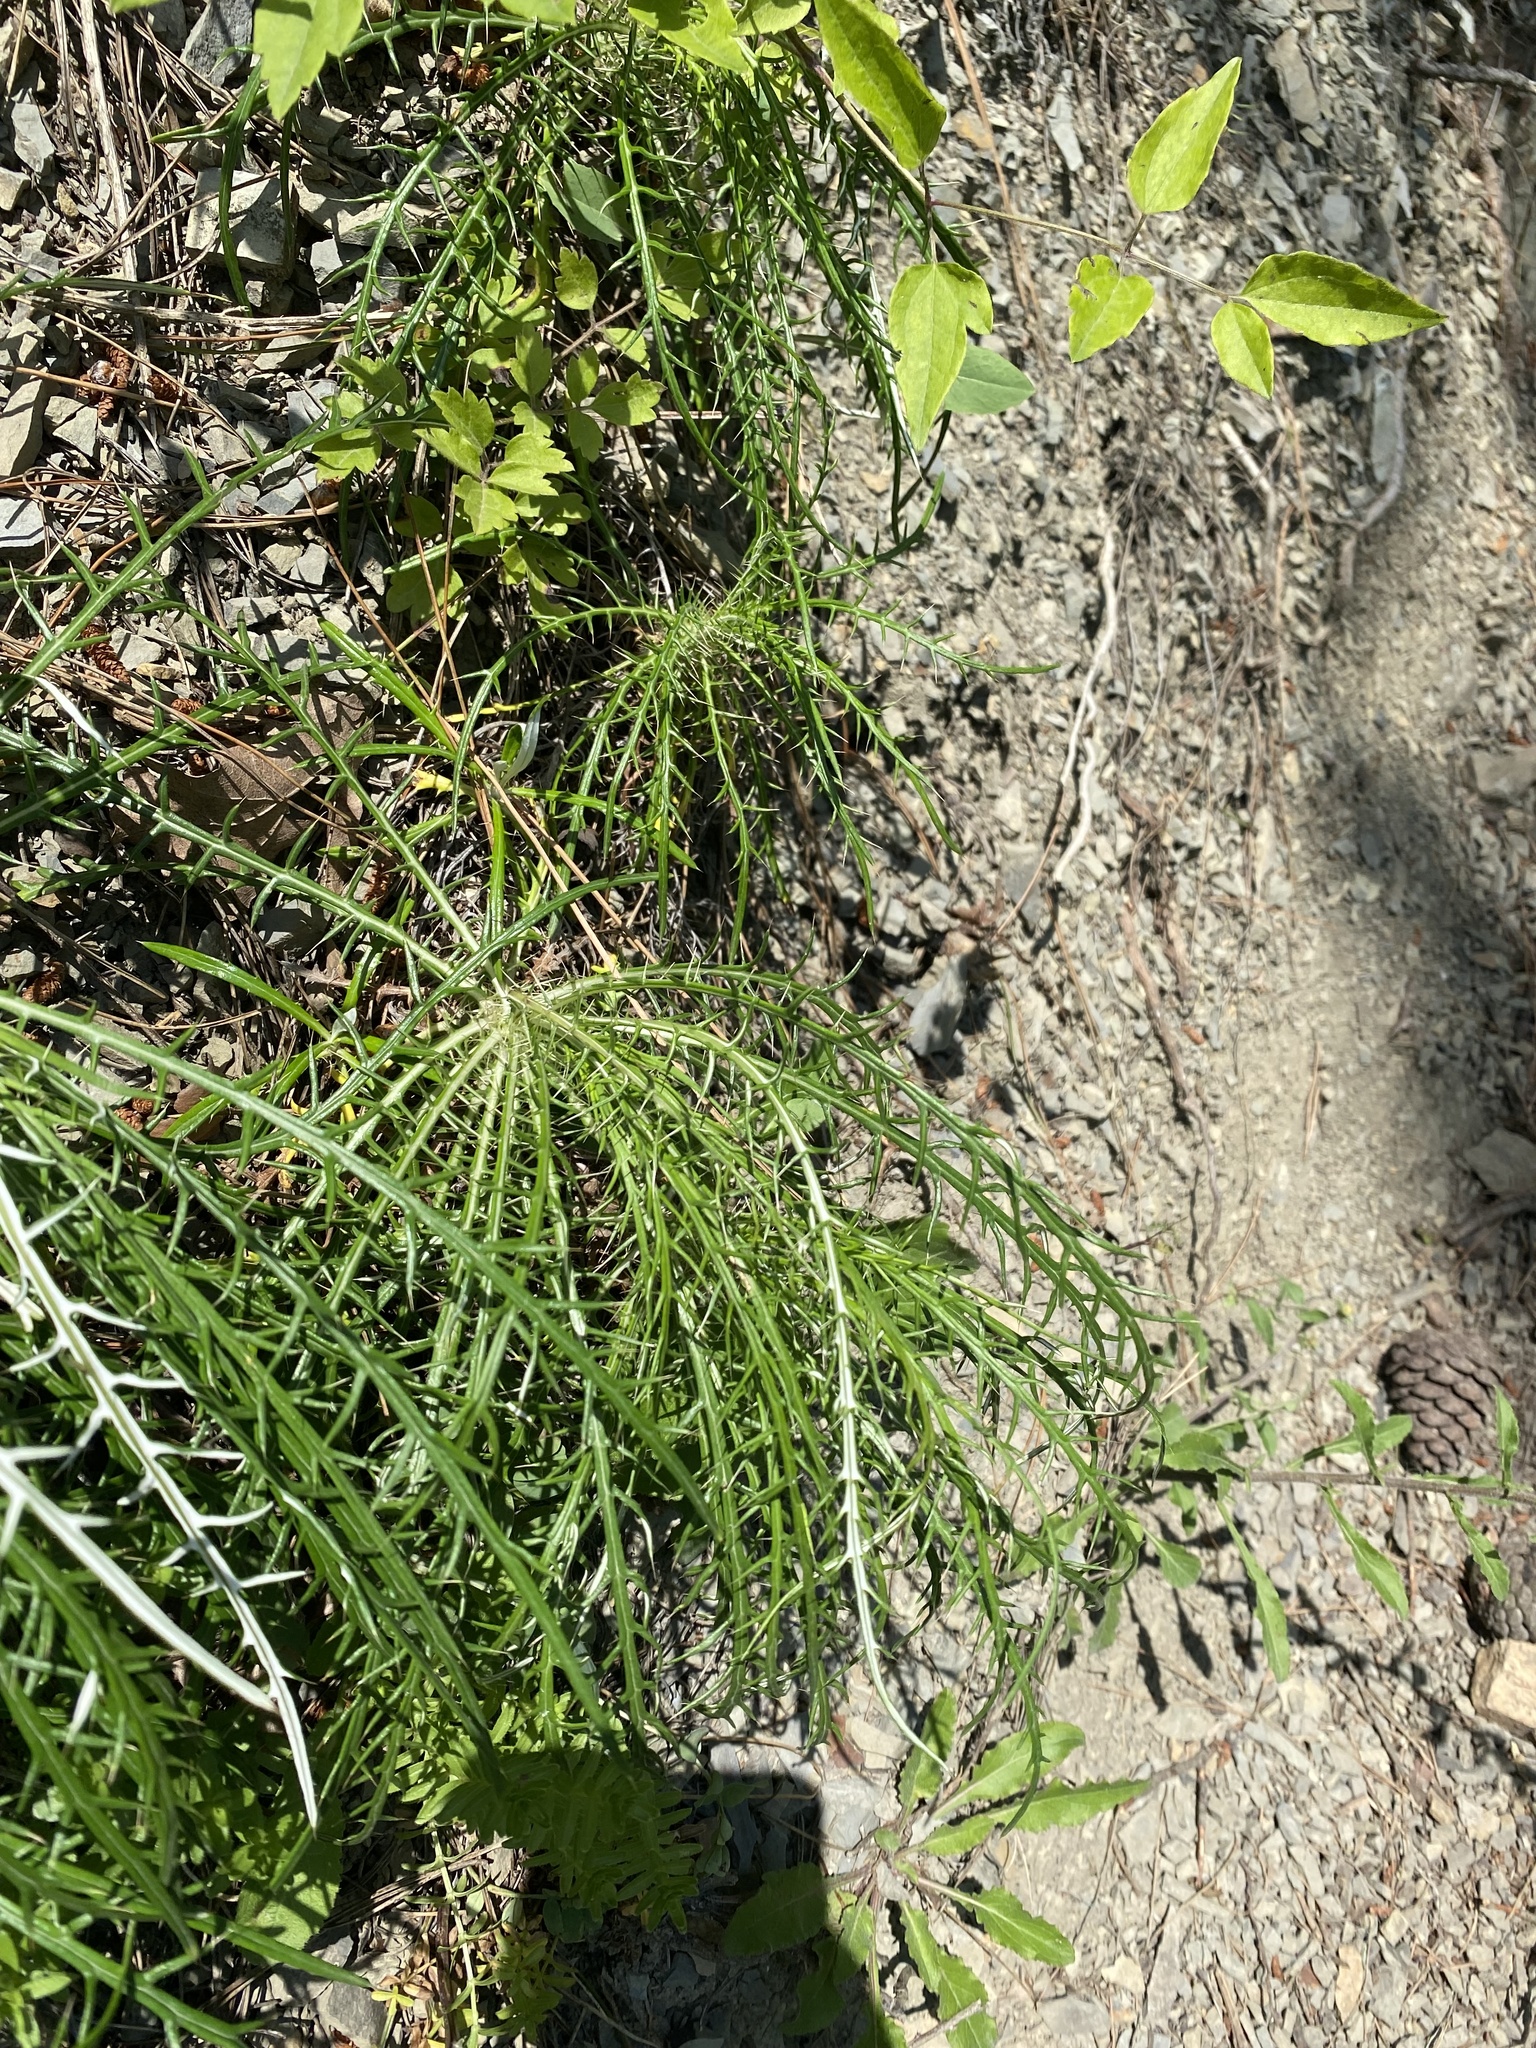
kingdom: Plantae
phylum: Tracheophyta
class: Magnoliopsida
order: Asterales
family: Asteraceae
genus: Ptilostemon
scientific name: Ptilostemon echinocephalus
